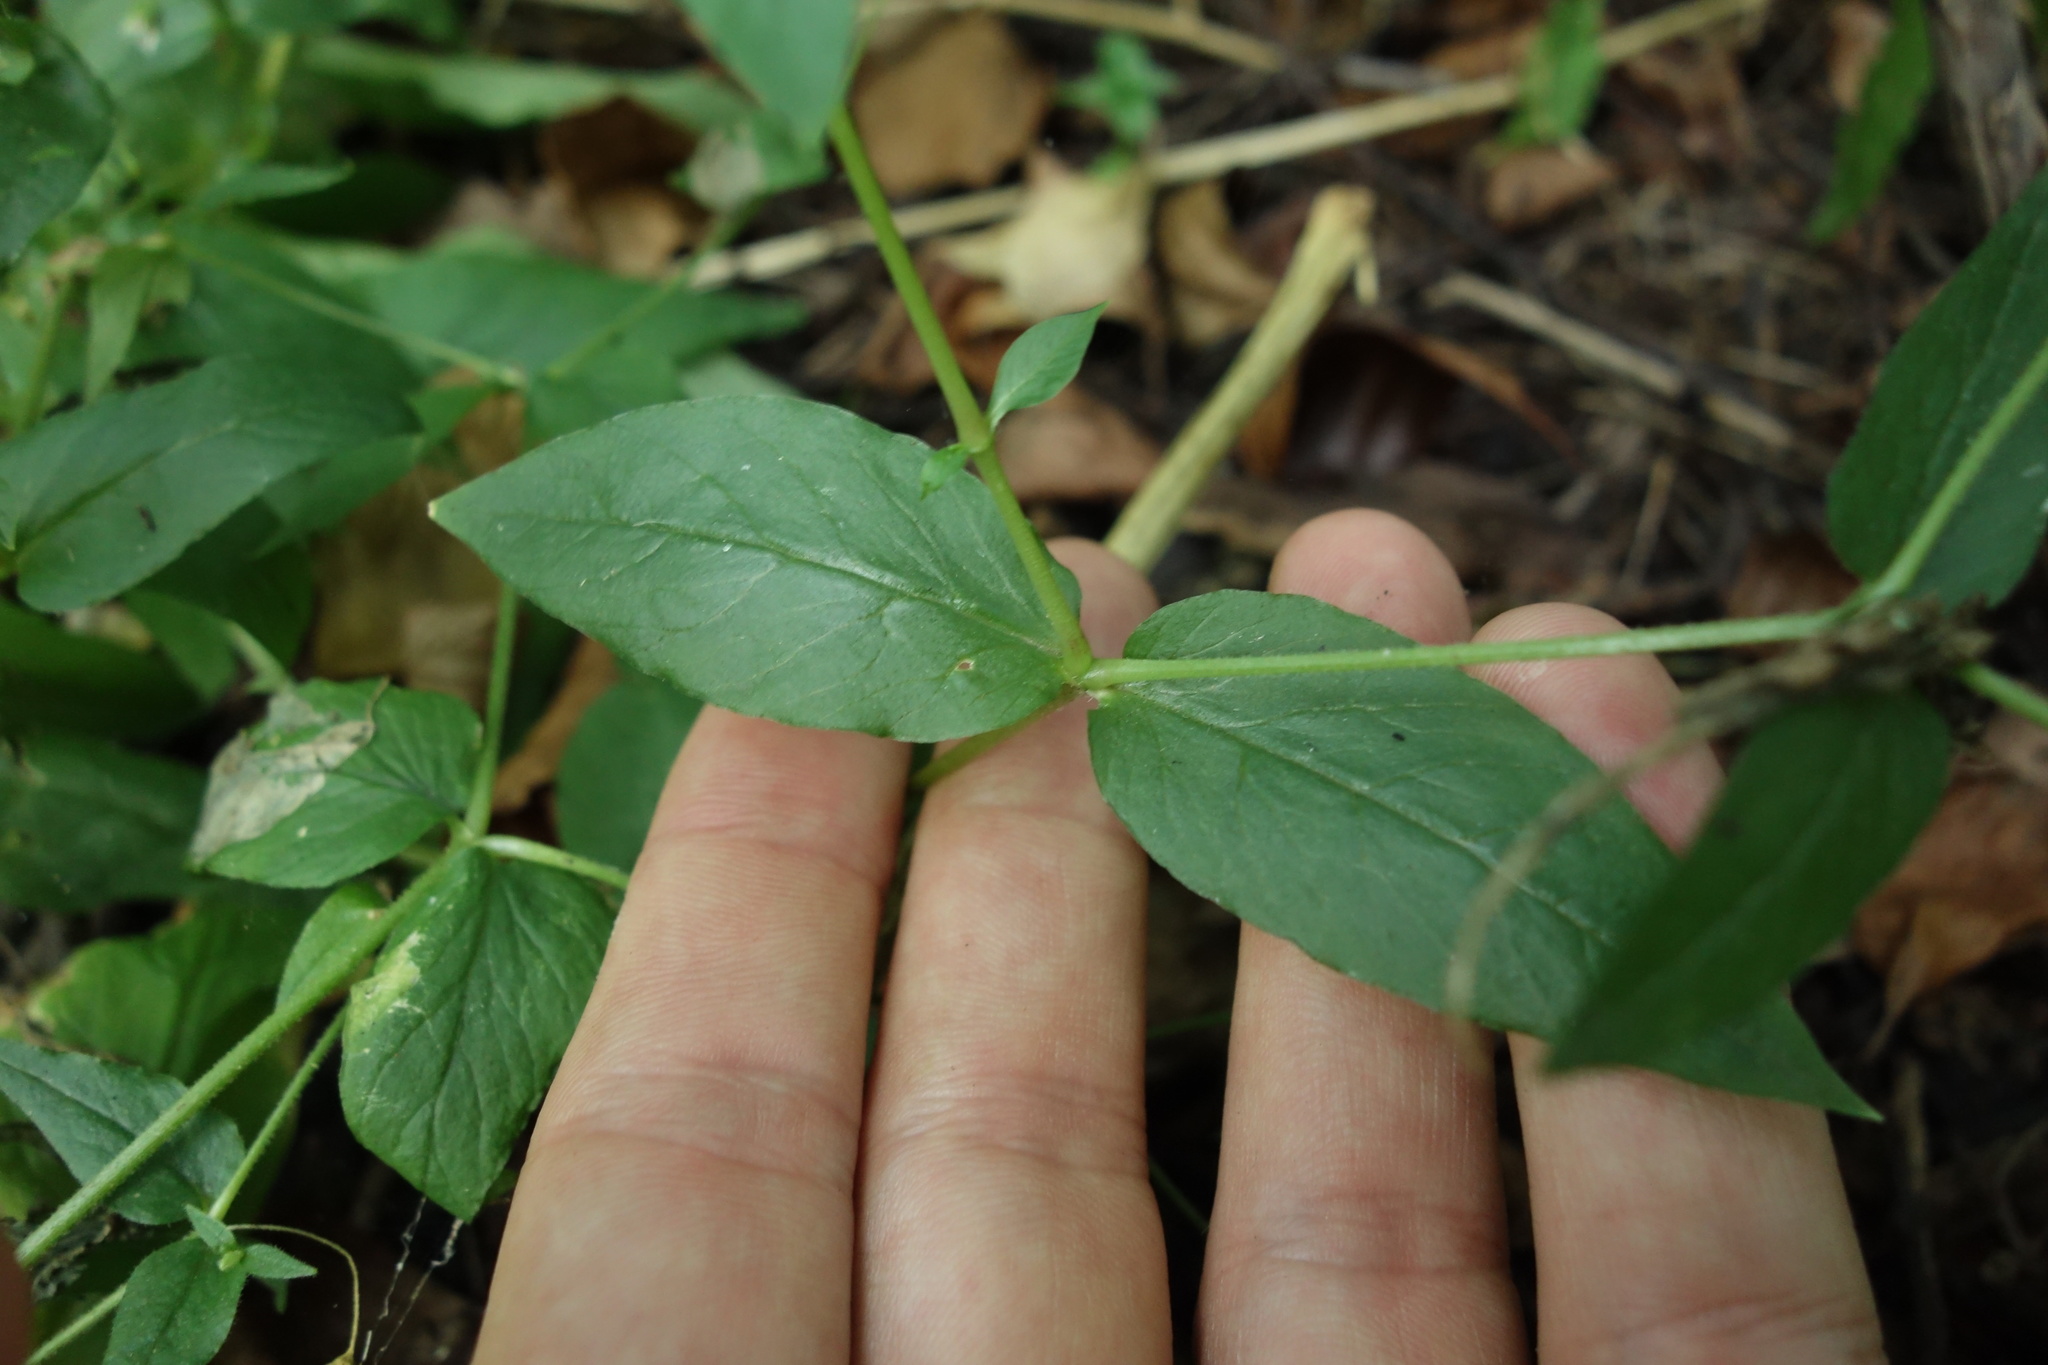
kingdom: Plantae
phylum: Tracheophyta
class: Magnoliopsida
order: Caryophyllales
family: Caryophyllaceae
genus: Stellaria
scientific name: Stellaria aquatica
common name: Water chickweed
